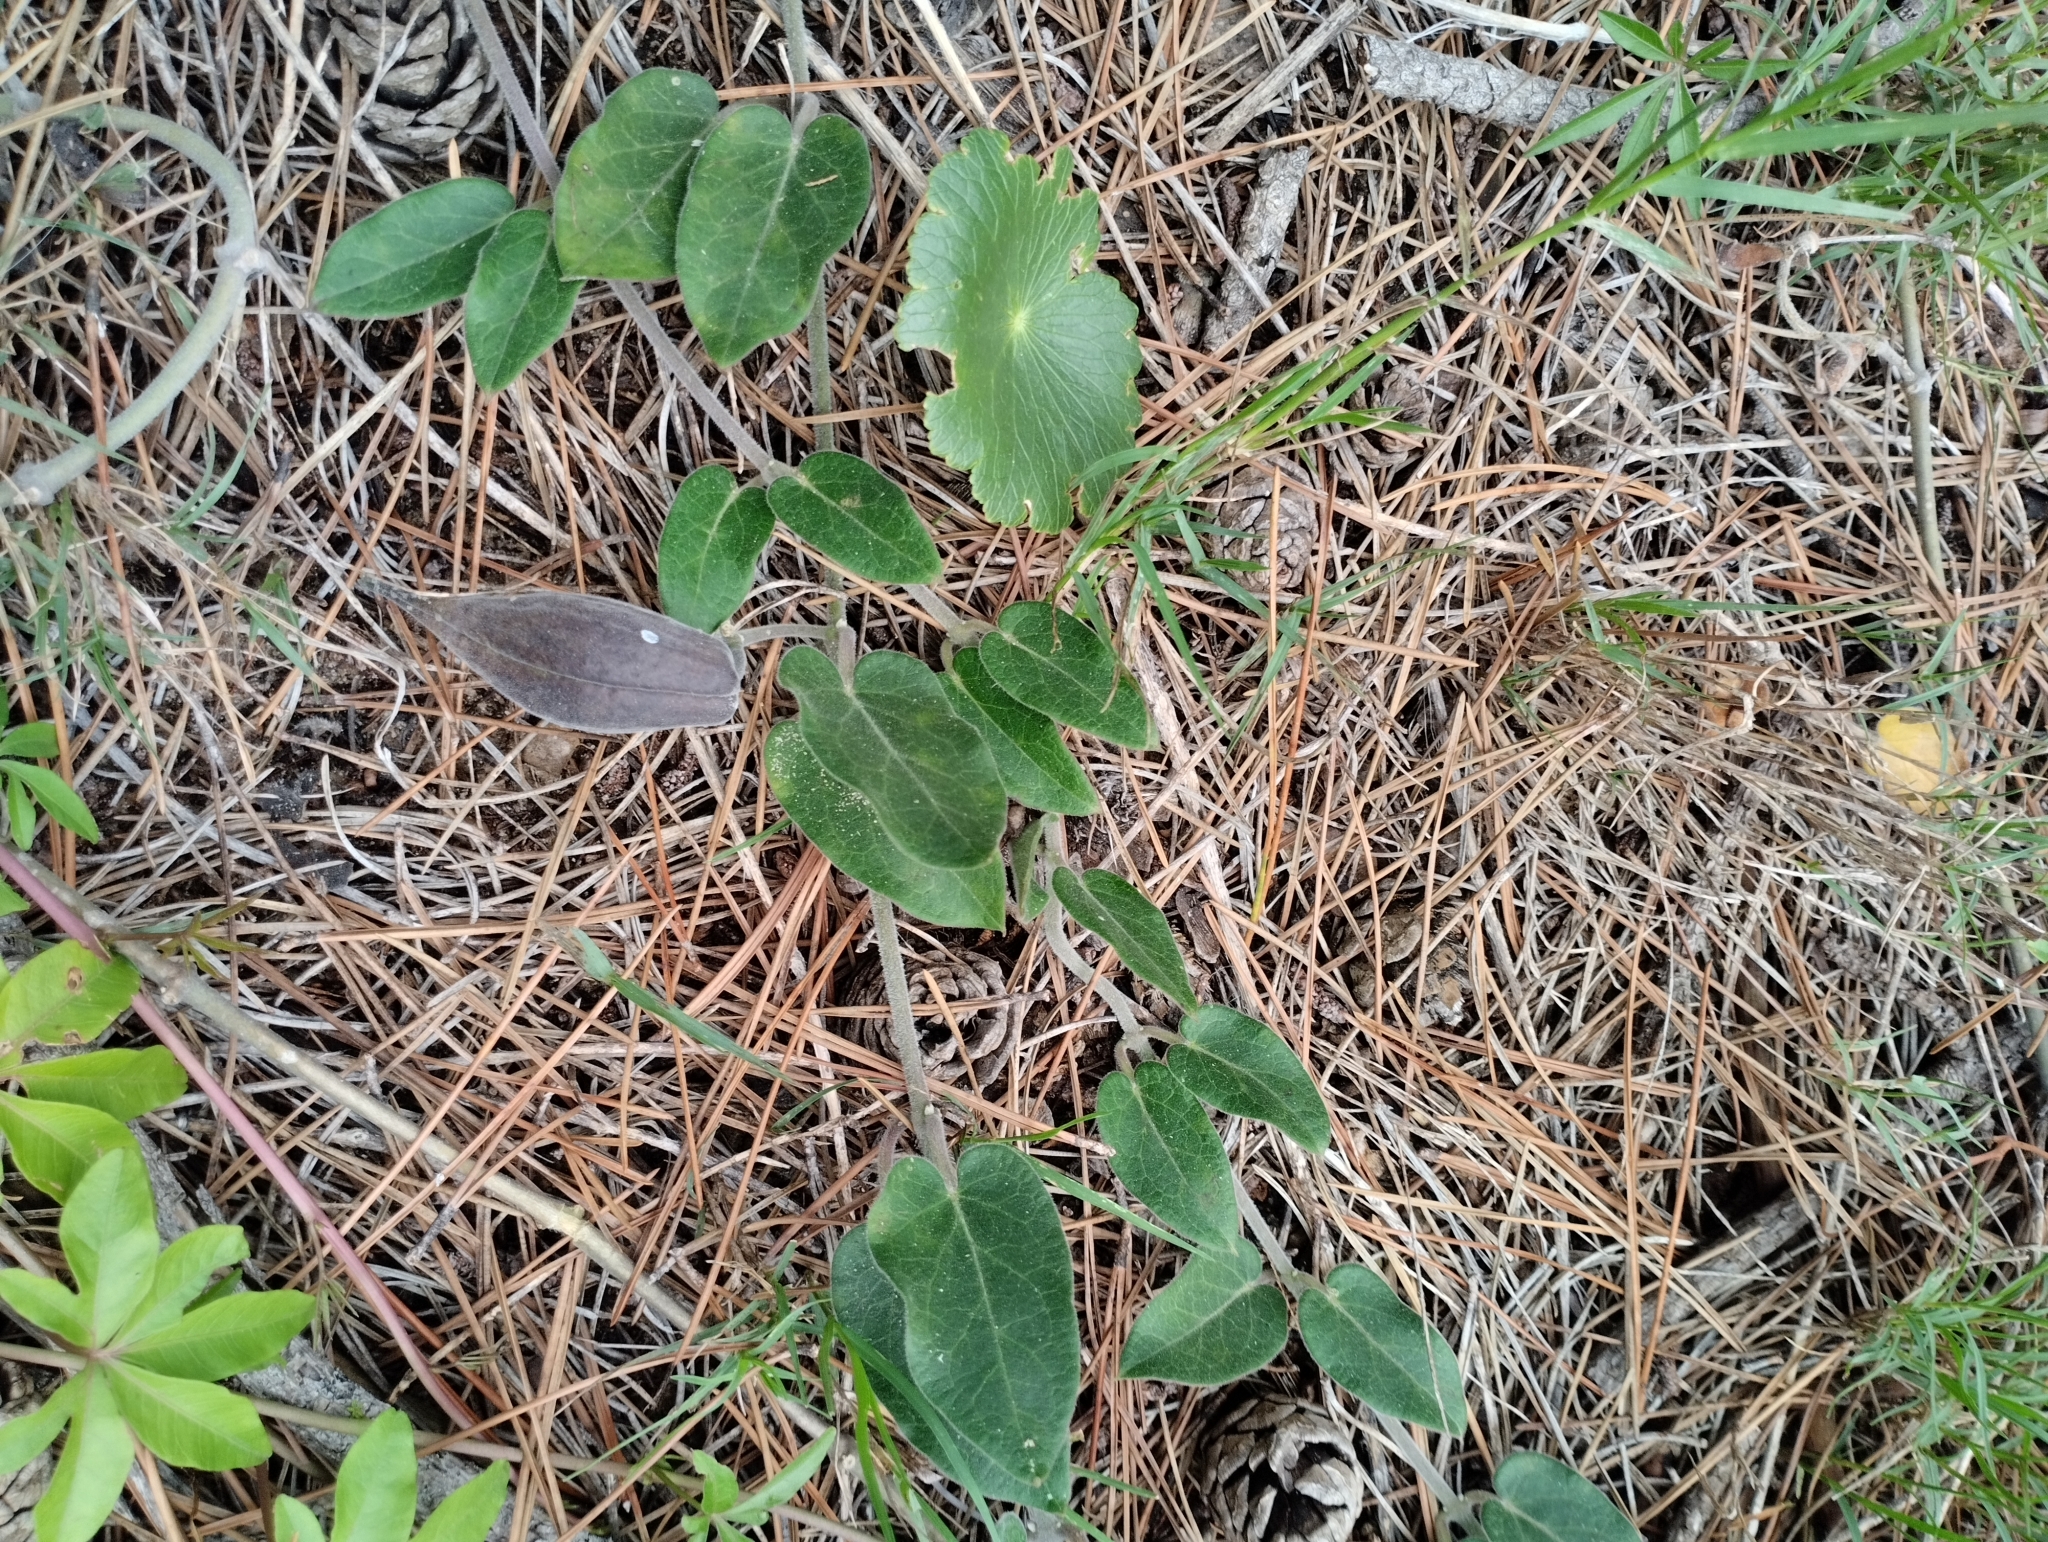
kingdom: Plantae
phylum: Tracheophyta
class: Magnoliopsida
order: Gentianales
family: Apocynaceae
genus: Oxypetalum
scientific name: Oxypetalum tomentosum
